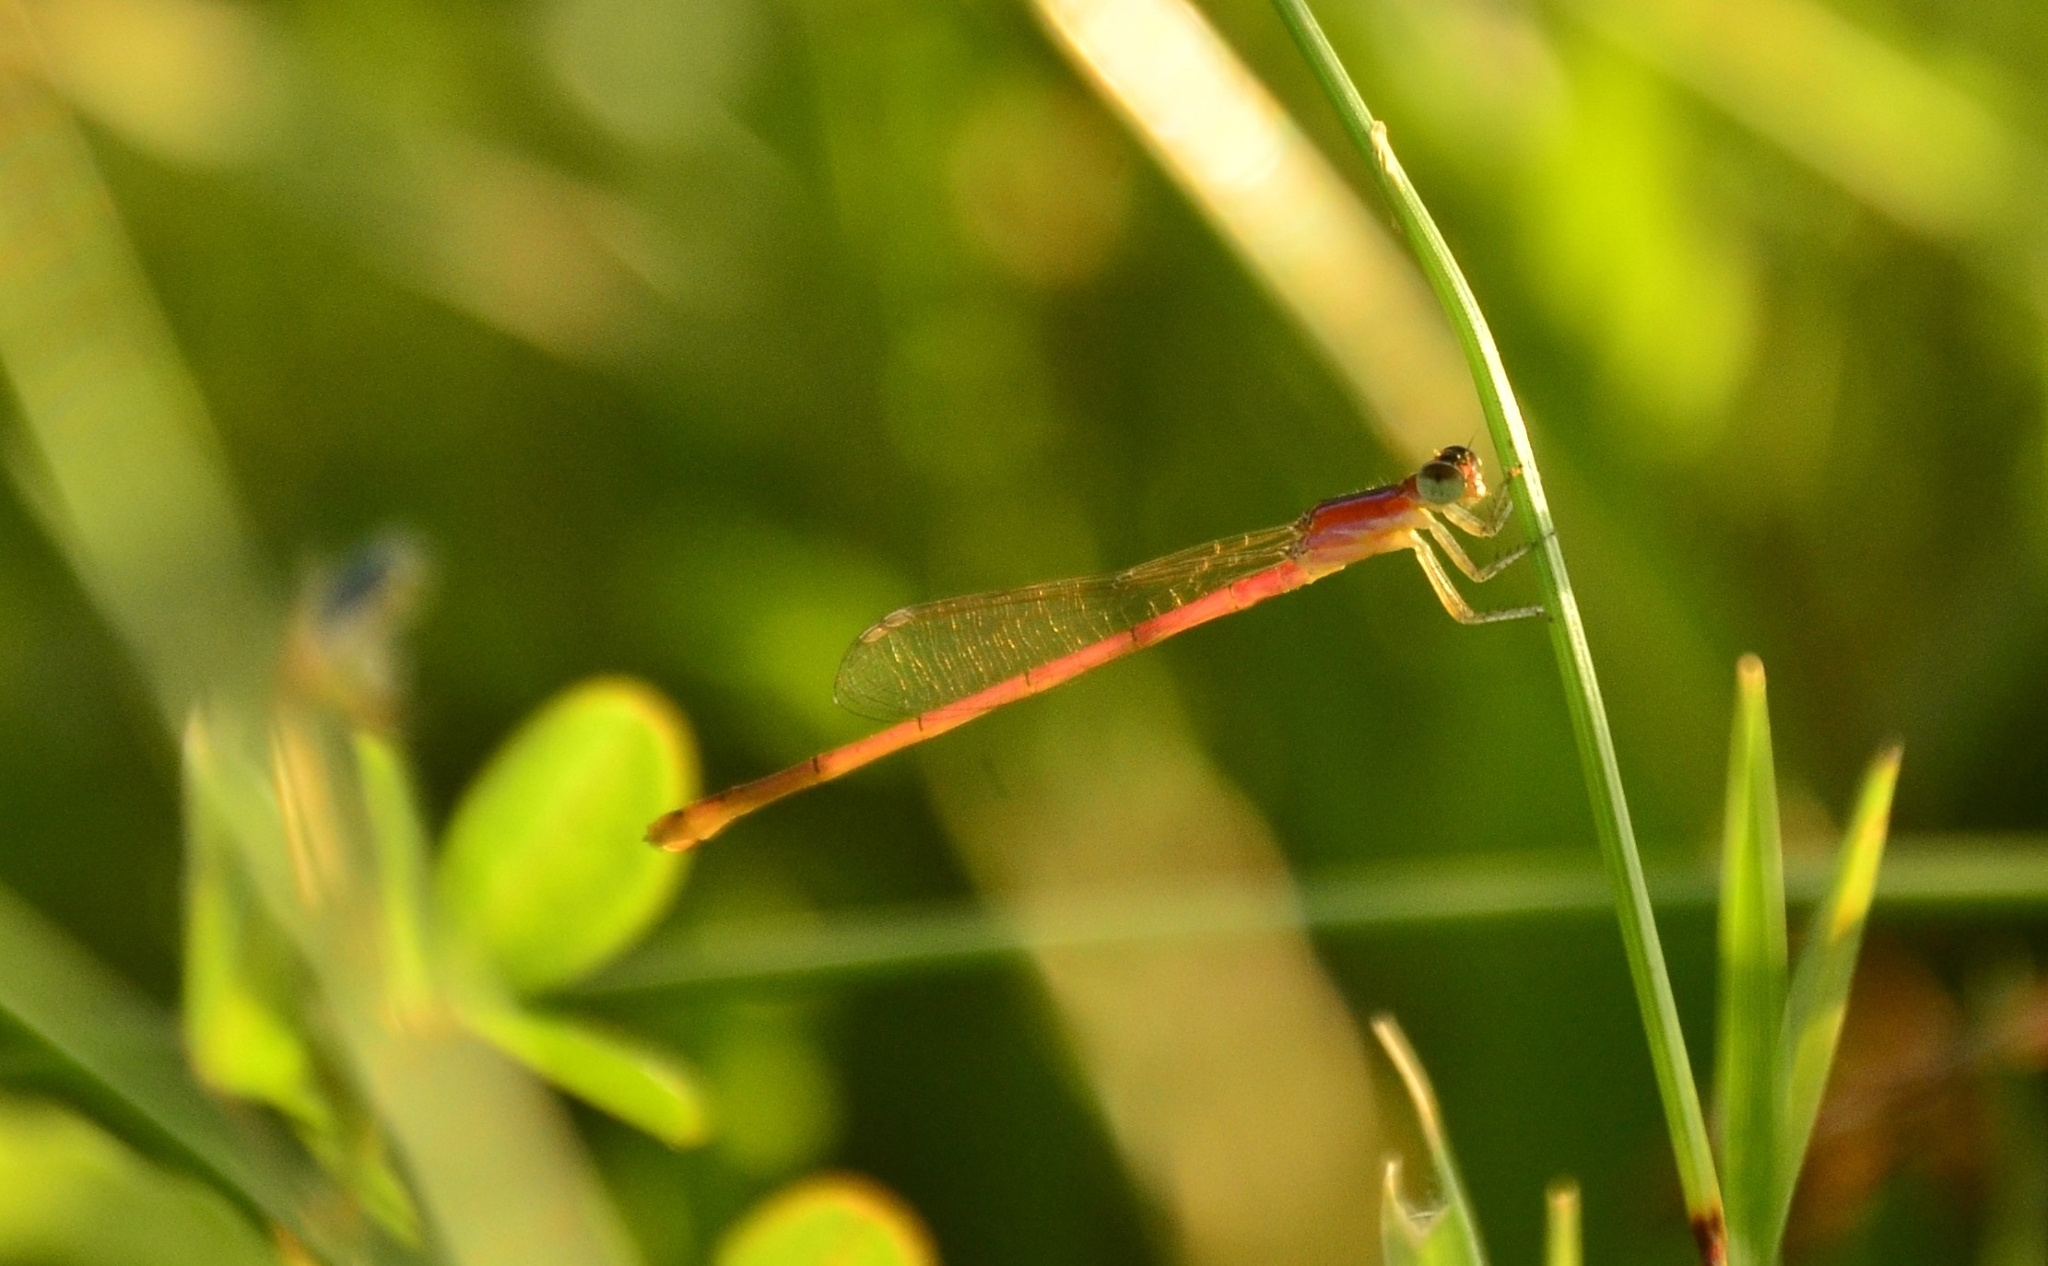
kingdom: Animalia
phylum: Arthropoda
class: Insecta
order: Odonata
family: Coenagrionidae
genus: Agriocnemis
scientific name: Agriocnemis pygmaea
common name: Pygmy wisp
